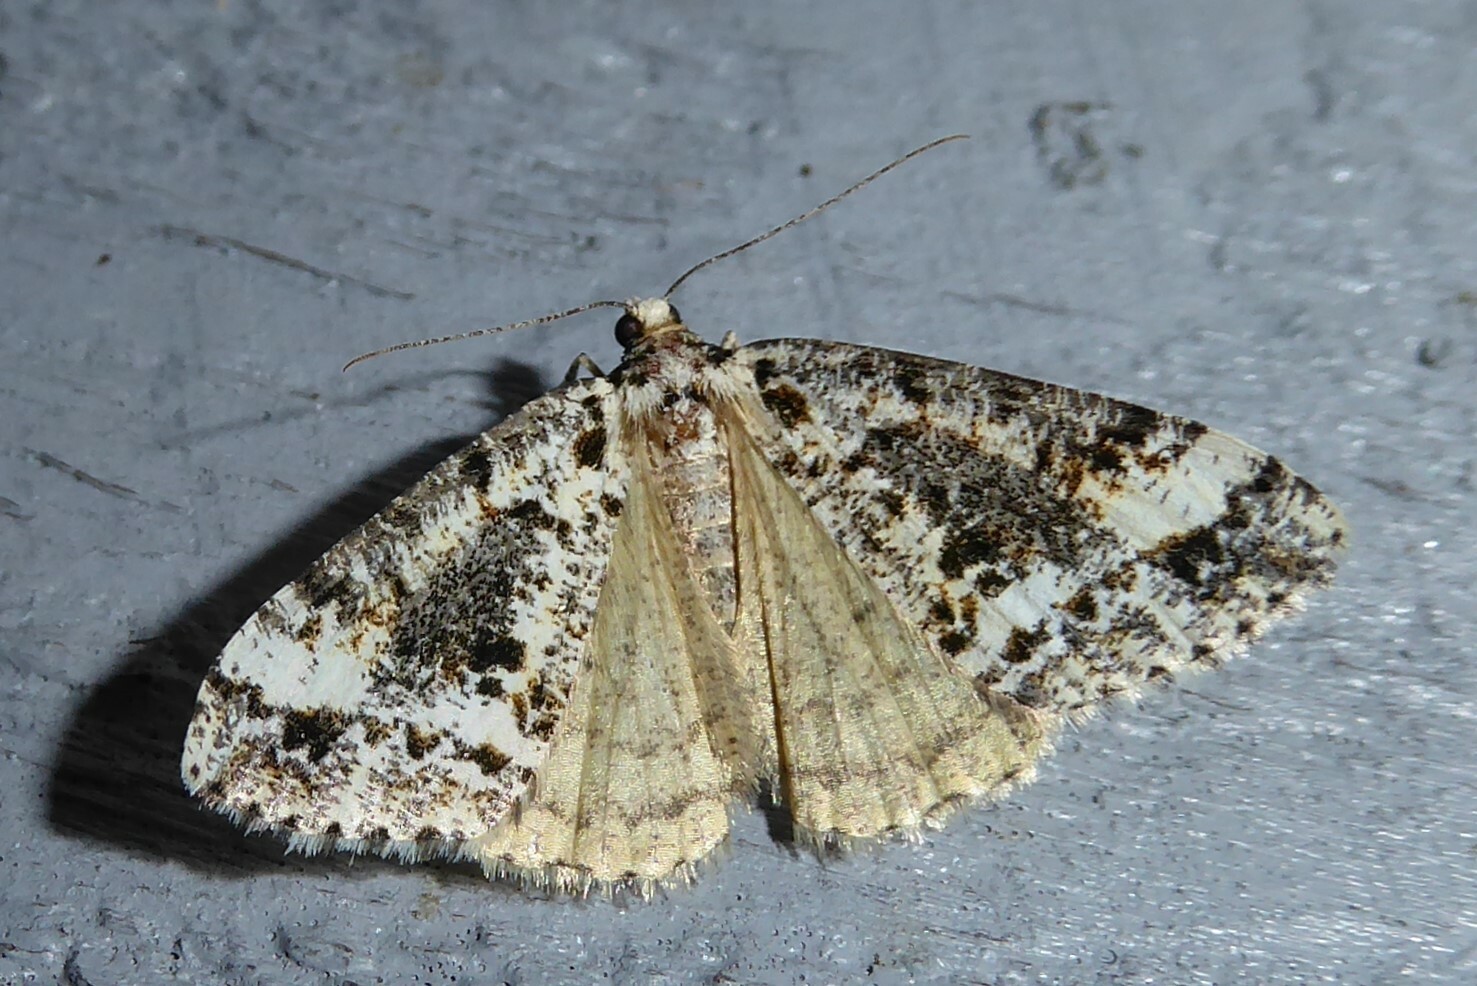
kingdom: Animalia
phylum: Arthropoda
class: Insecta
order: Lepidoptera
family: Geometridae
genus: Pseudocoremia
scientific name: Pseudocoremia leucelaea
